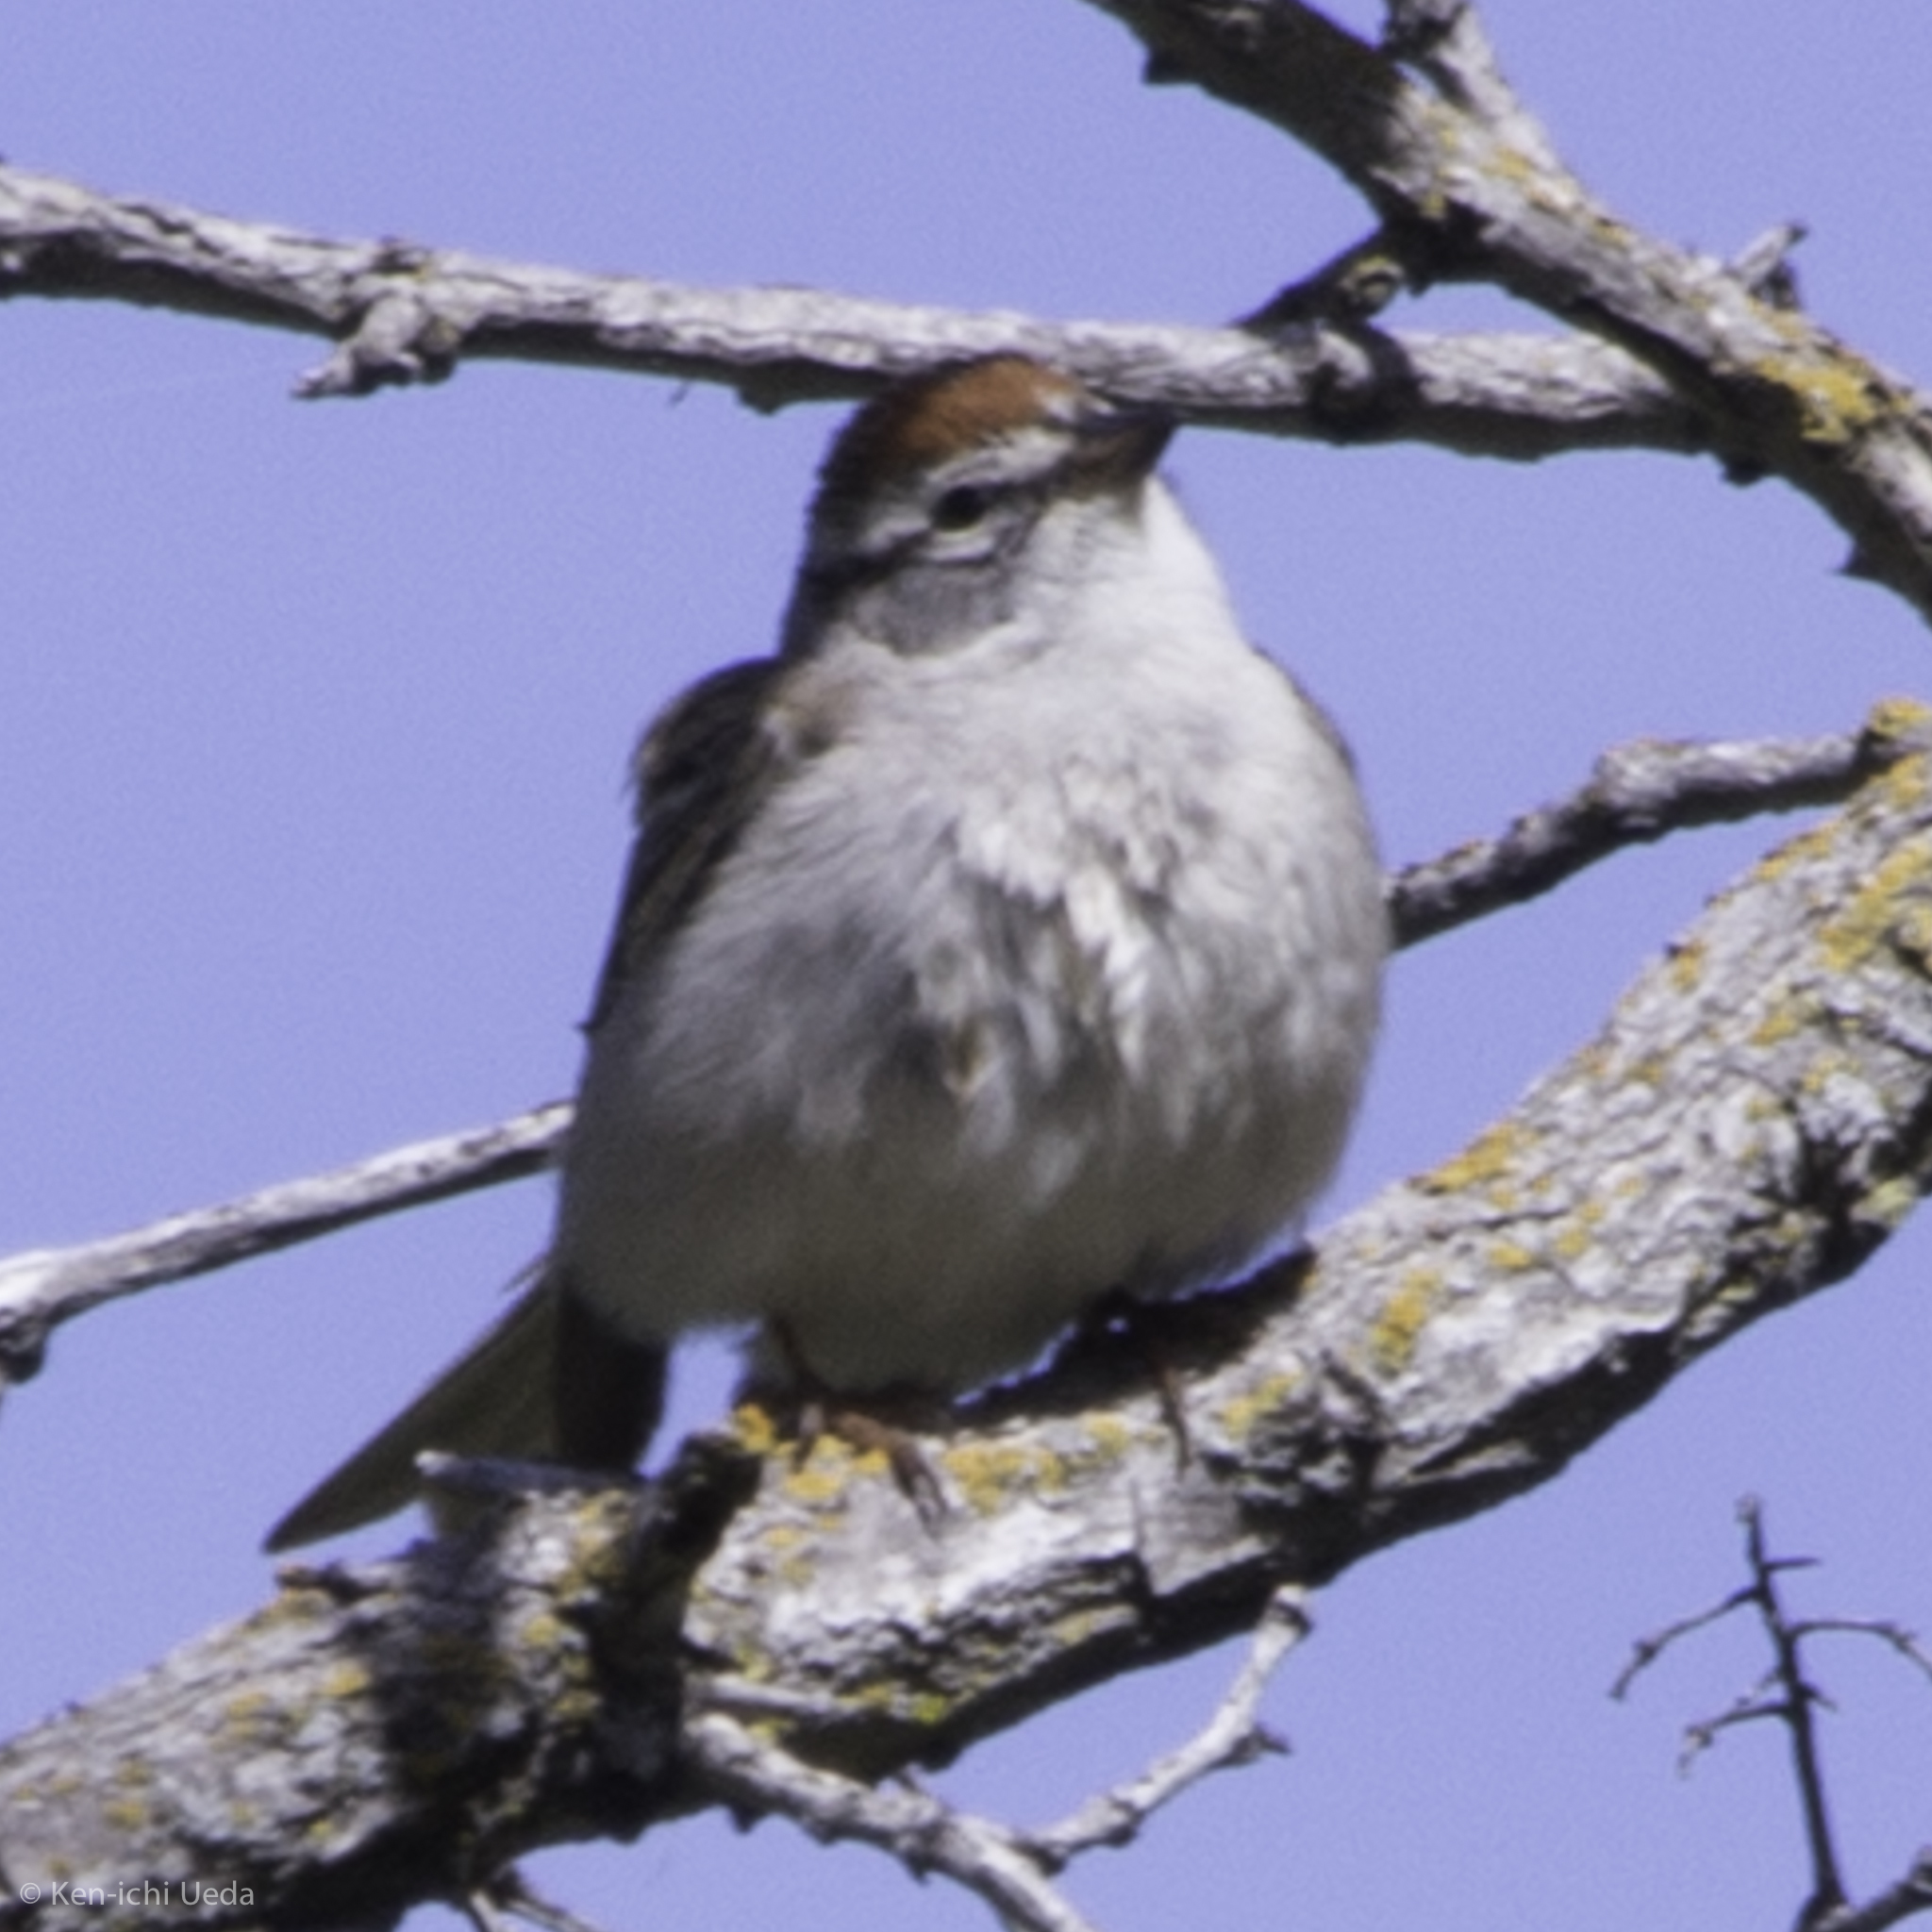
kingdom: Animalia
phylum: Chordata
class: Aves
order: Passeriformes
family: Passerellidae
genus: Spizella
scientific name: Spizella passerina
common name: Chipping sparrow
